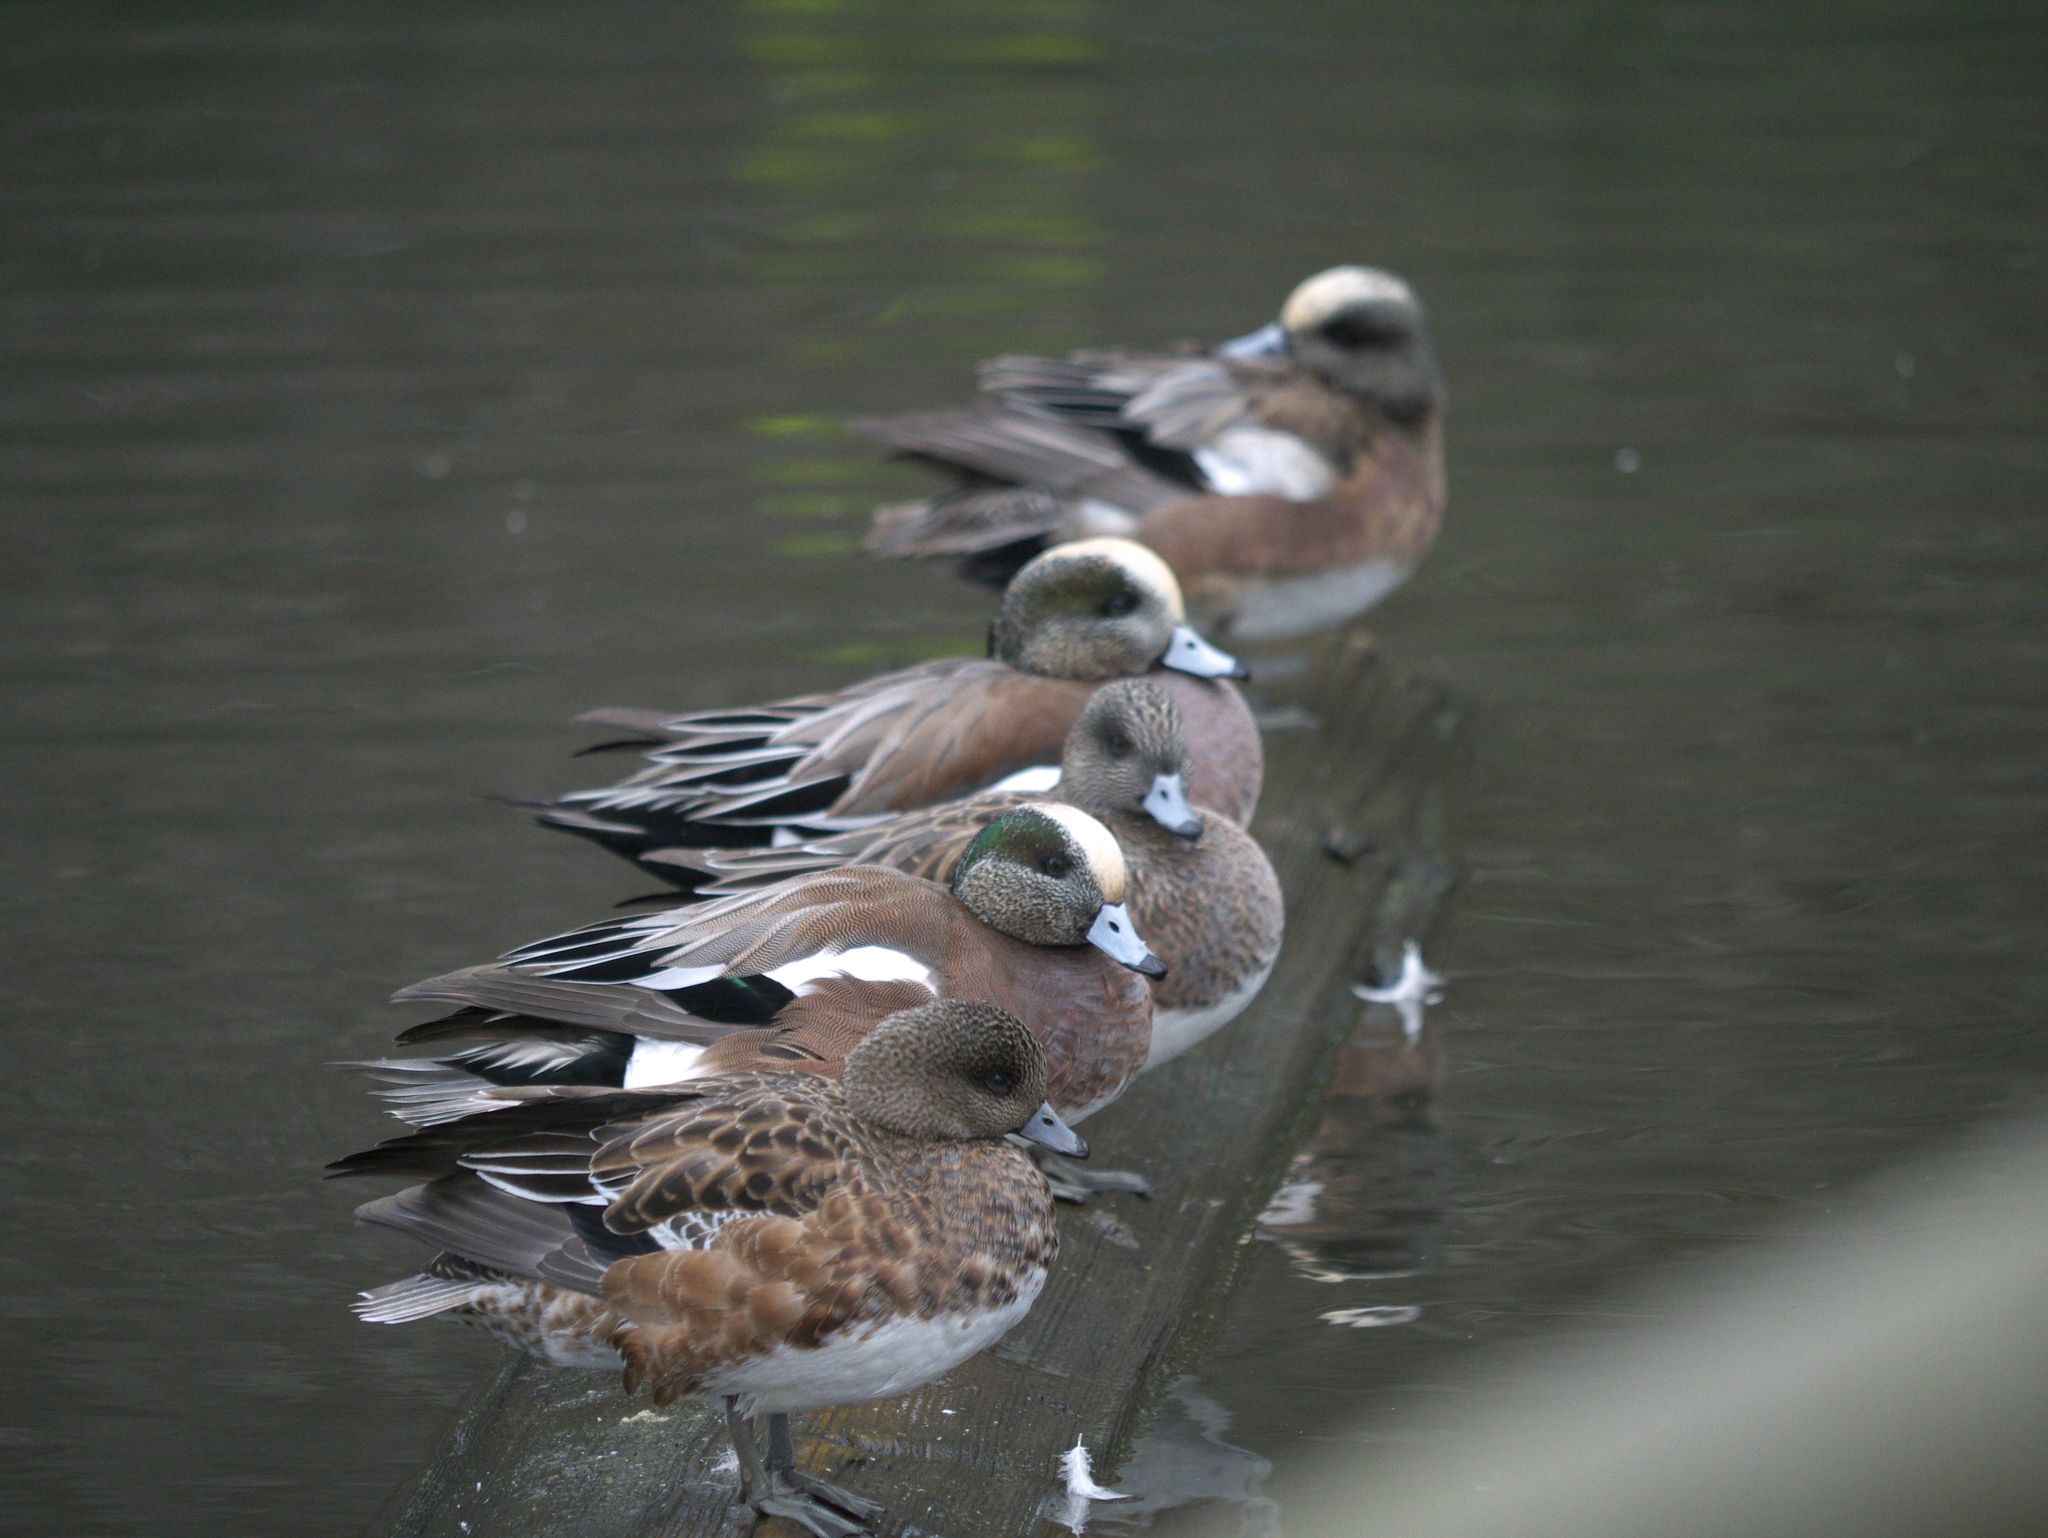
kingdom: Animalia
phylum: Chordata
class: Aves
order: Anseriformes
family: Anatidae
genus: Mareca
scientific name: Mareca americana
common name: American wigeon
